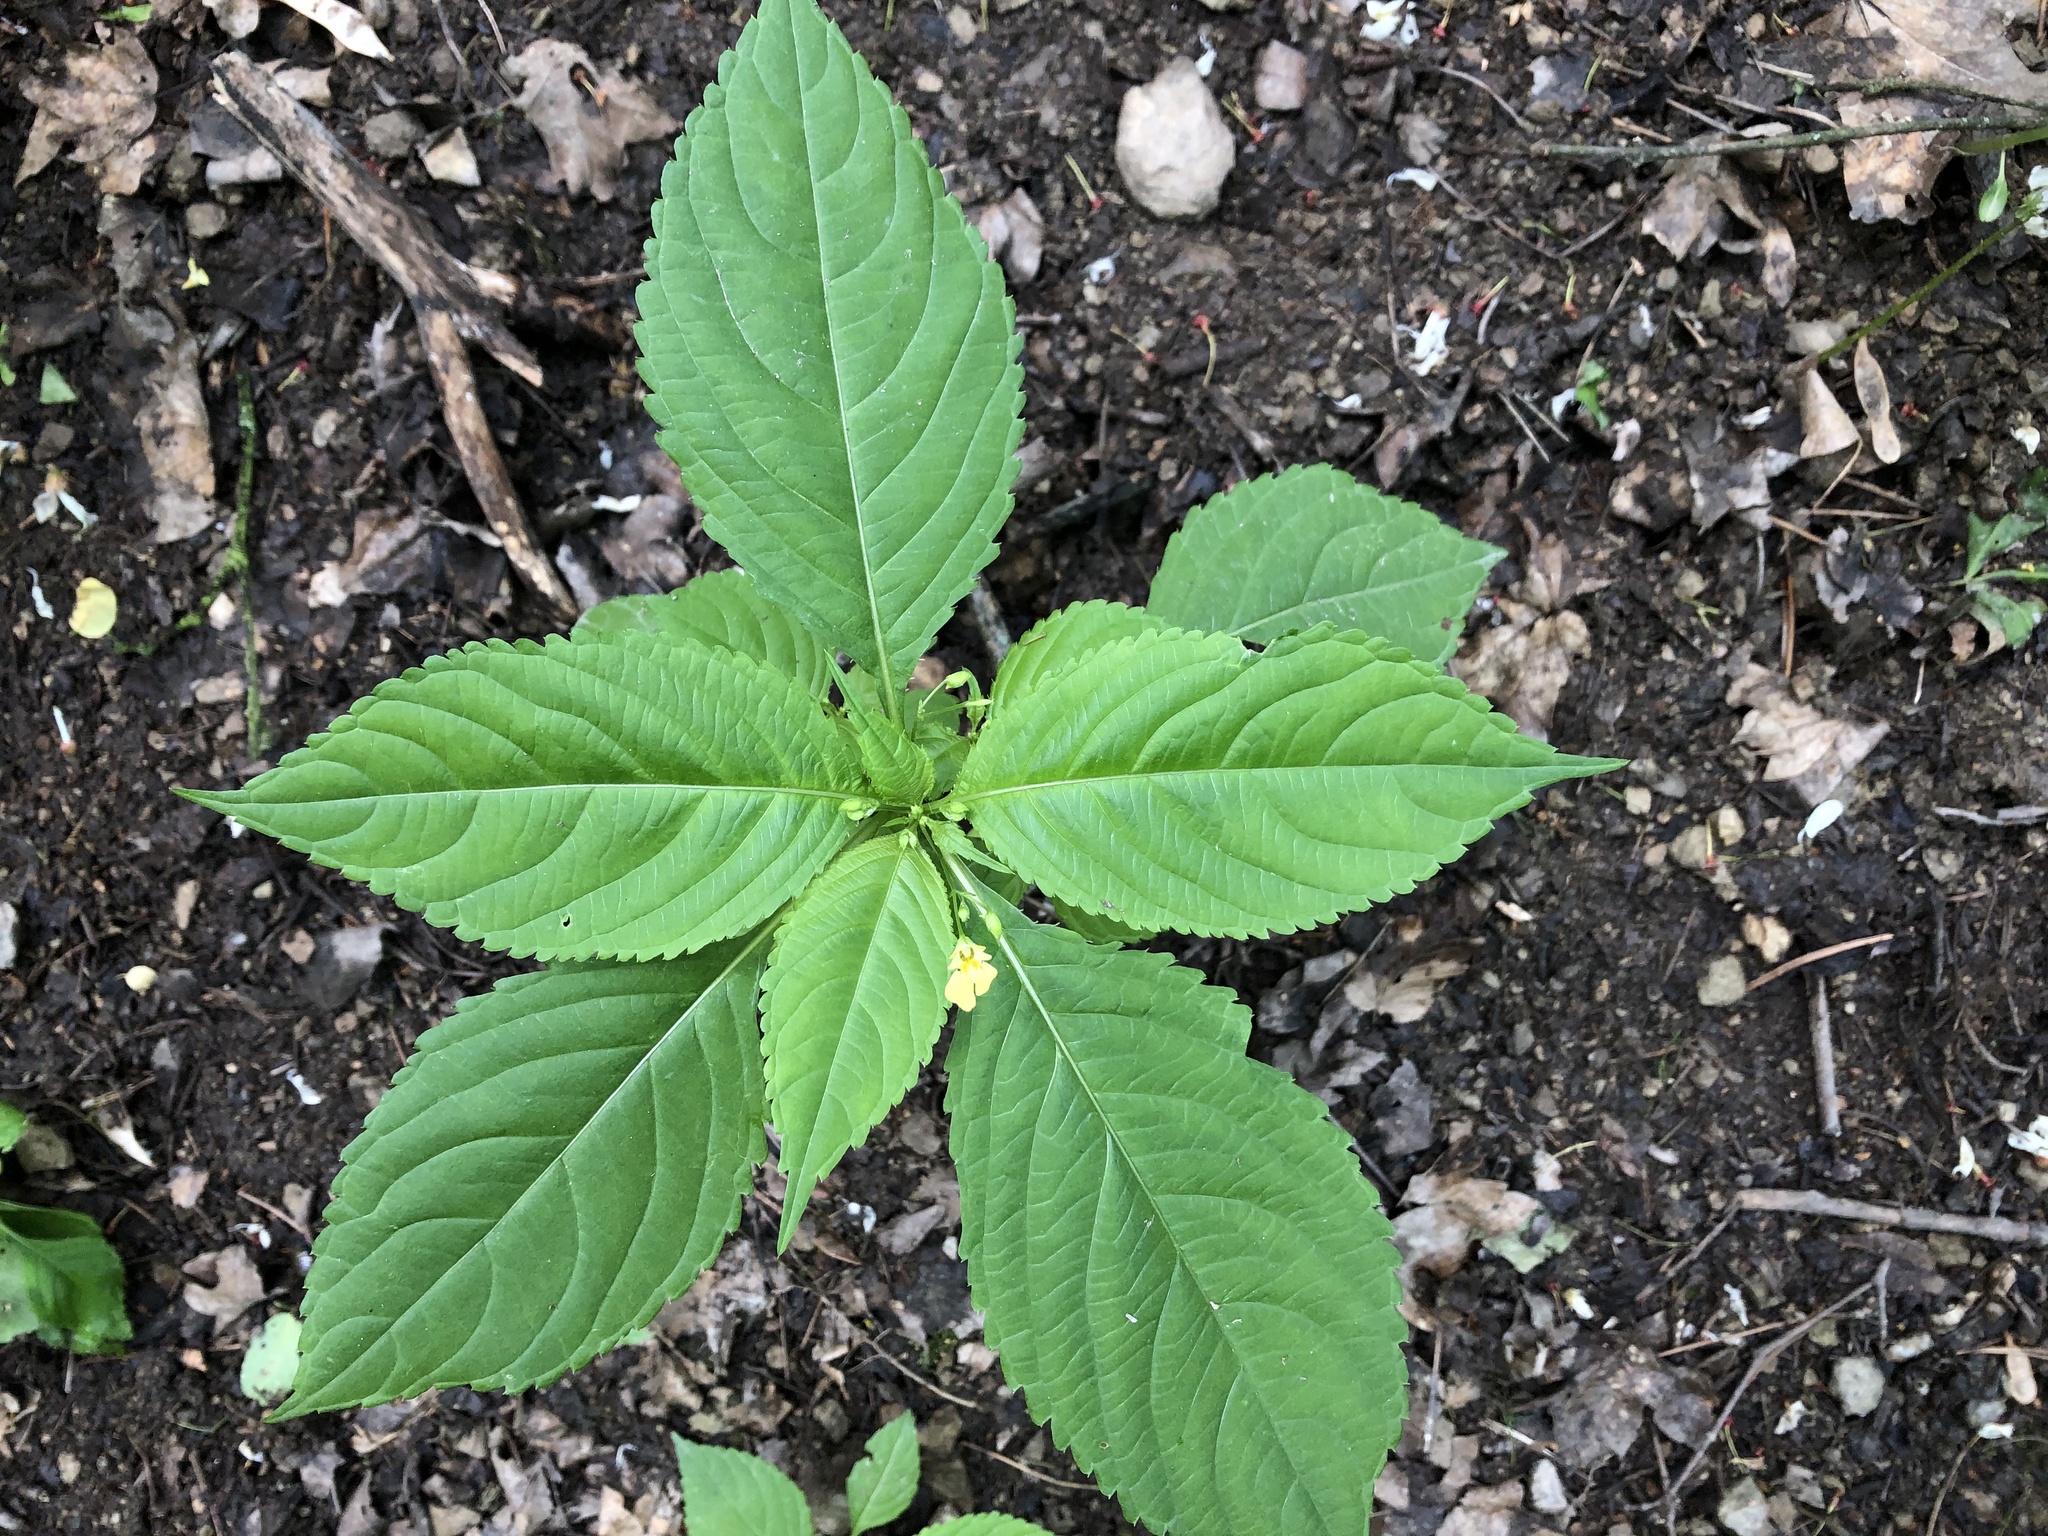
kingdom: Plantae
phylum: Tracheophyta
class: Magnoliopsida
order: Ericales
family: Balsaminaceae
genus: Impatiens
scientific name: Impatiens parviflora
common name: Small balsam
